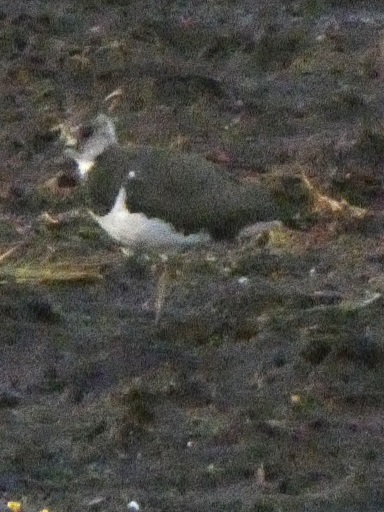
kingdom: Animalia
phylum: Chordata
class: Aves
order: Charadriiformes
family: Charadriidae
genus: Vanellus
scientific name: Vanellus vanellus
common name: Northern lapwing
